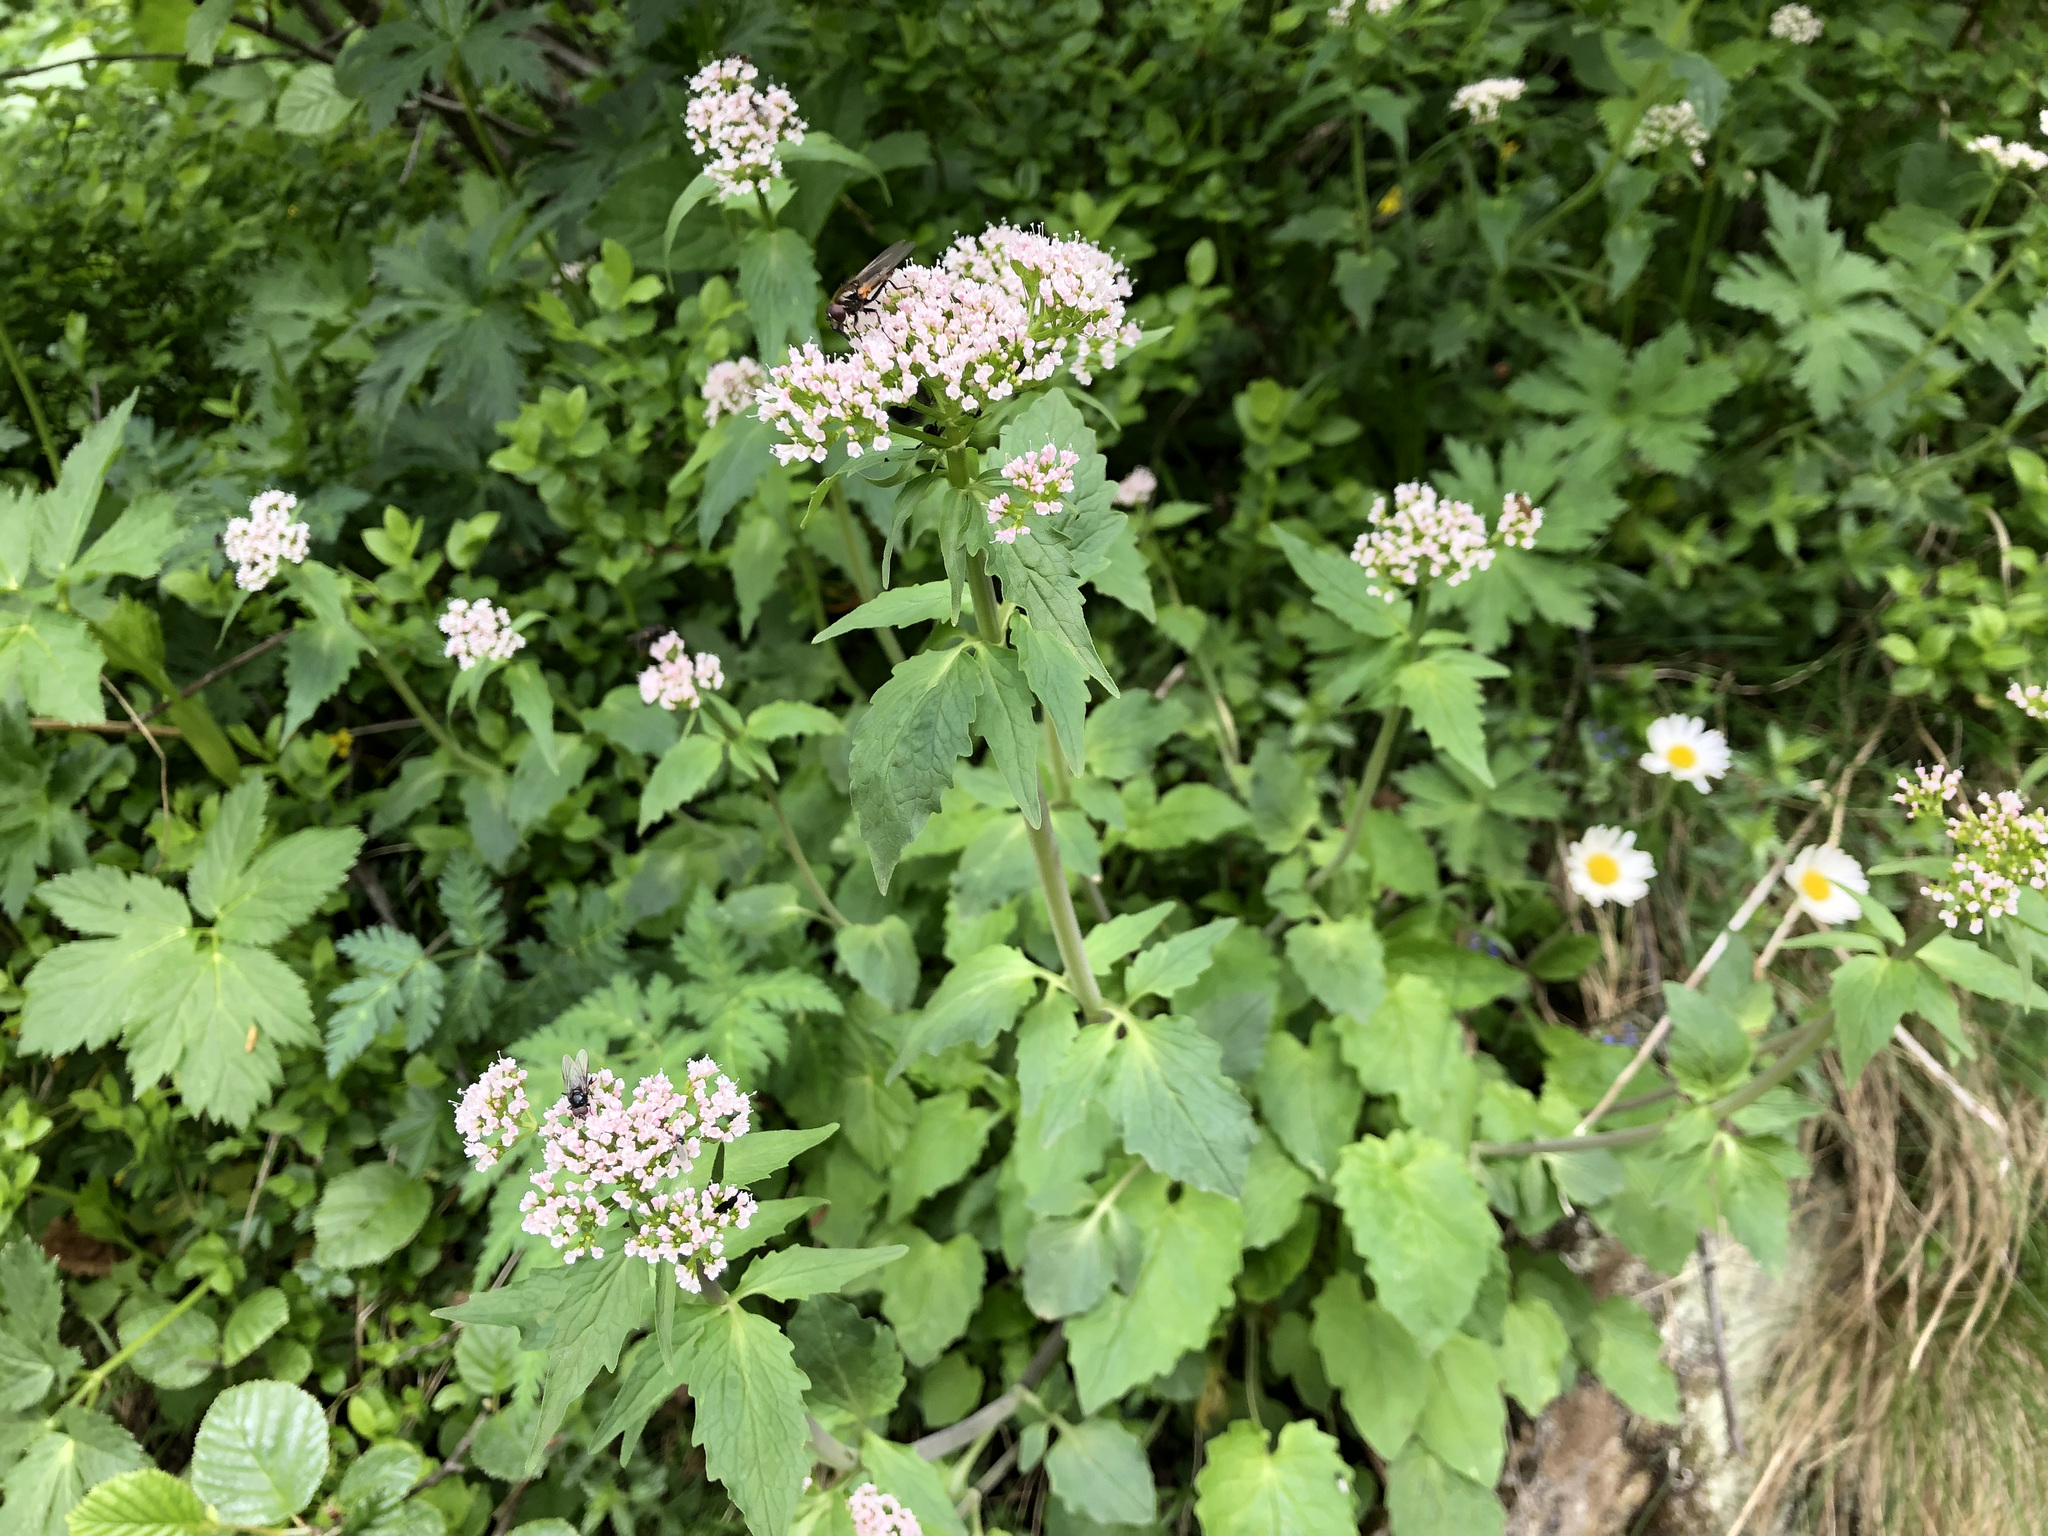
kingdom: Plantae
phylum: Tracheophyta
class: Magnoliopsida
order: Dipsacales
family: Caprifoliaceae
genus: Valeriana
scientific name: Valeriana tripteris
